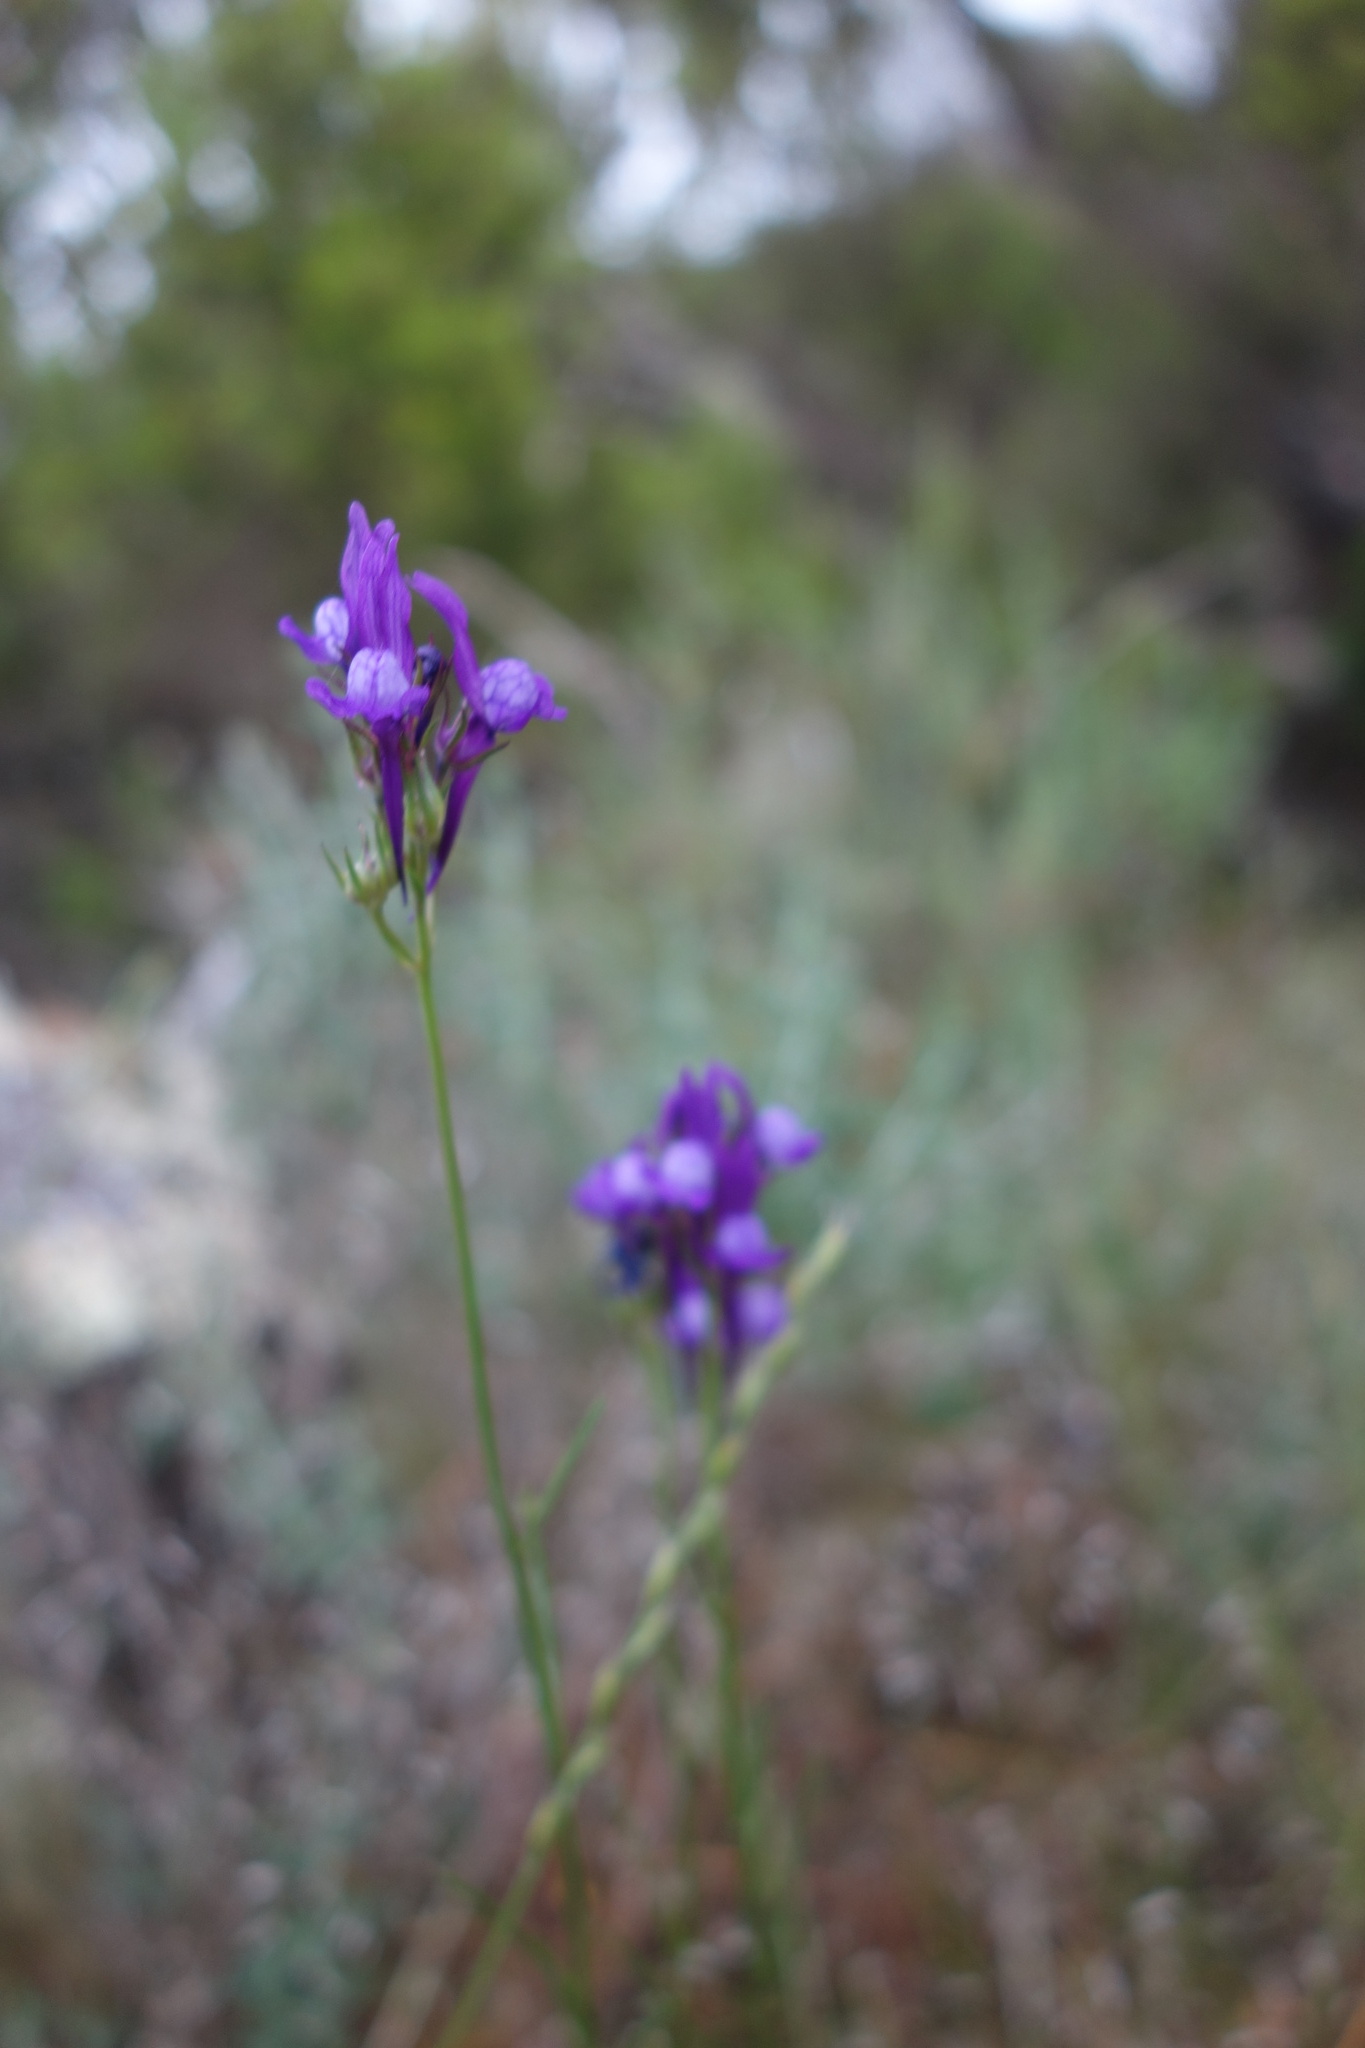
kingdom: Plantae
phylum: Tracheophyta
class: Magnoliopsida
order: Lamiales
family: Plantaginaceae
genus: Linaria
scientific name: Linaria pelisseriana
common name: Jersey toadflax
